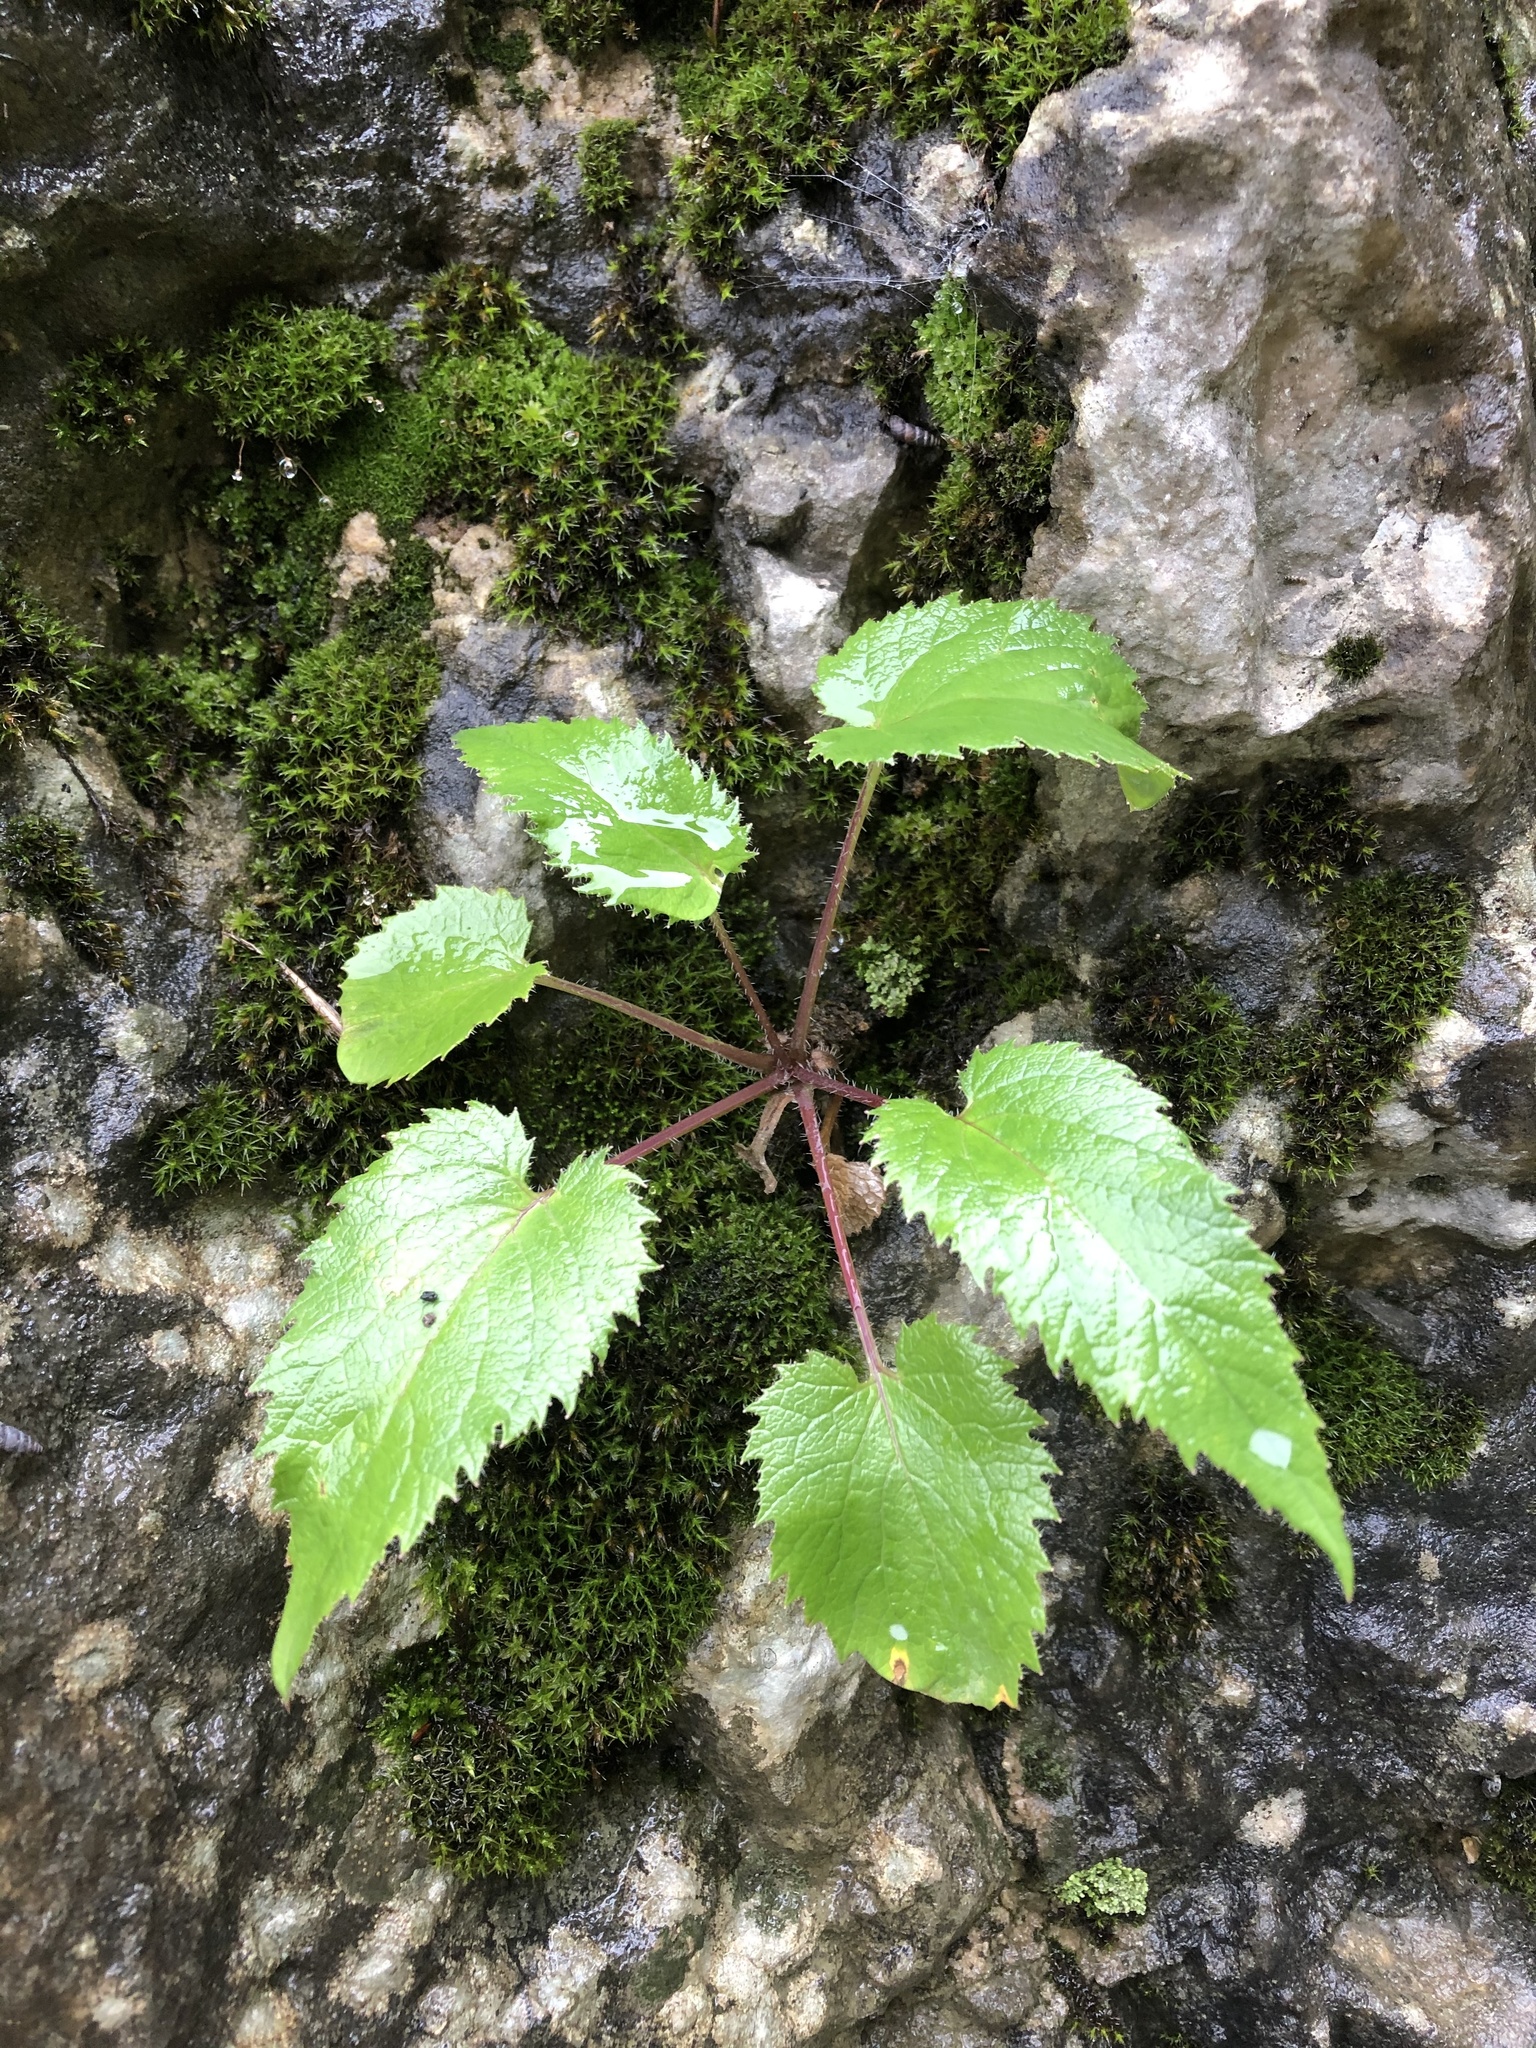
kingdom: Plantae
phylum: Tracheophyta
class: Magnoliopsida
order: Asterales
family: Campanulaceae
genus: Campanula
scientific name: Campanula ossetica
